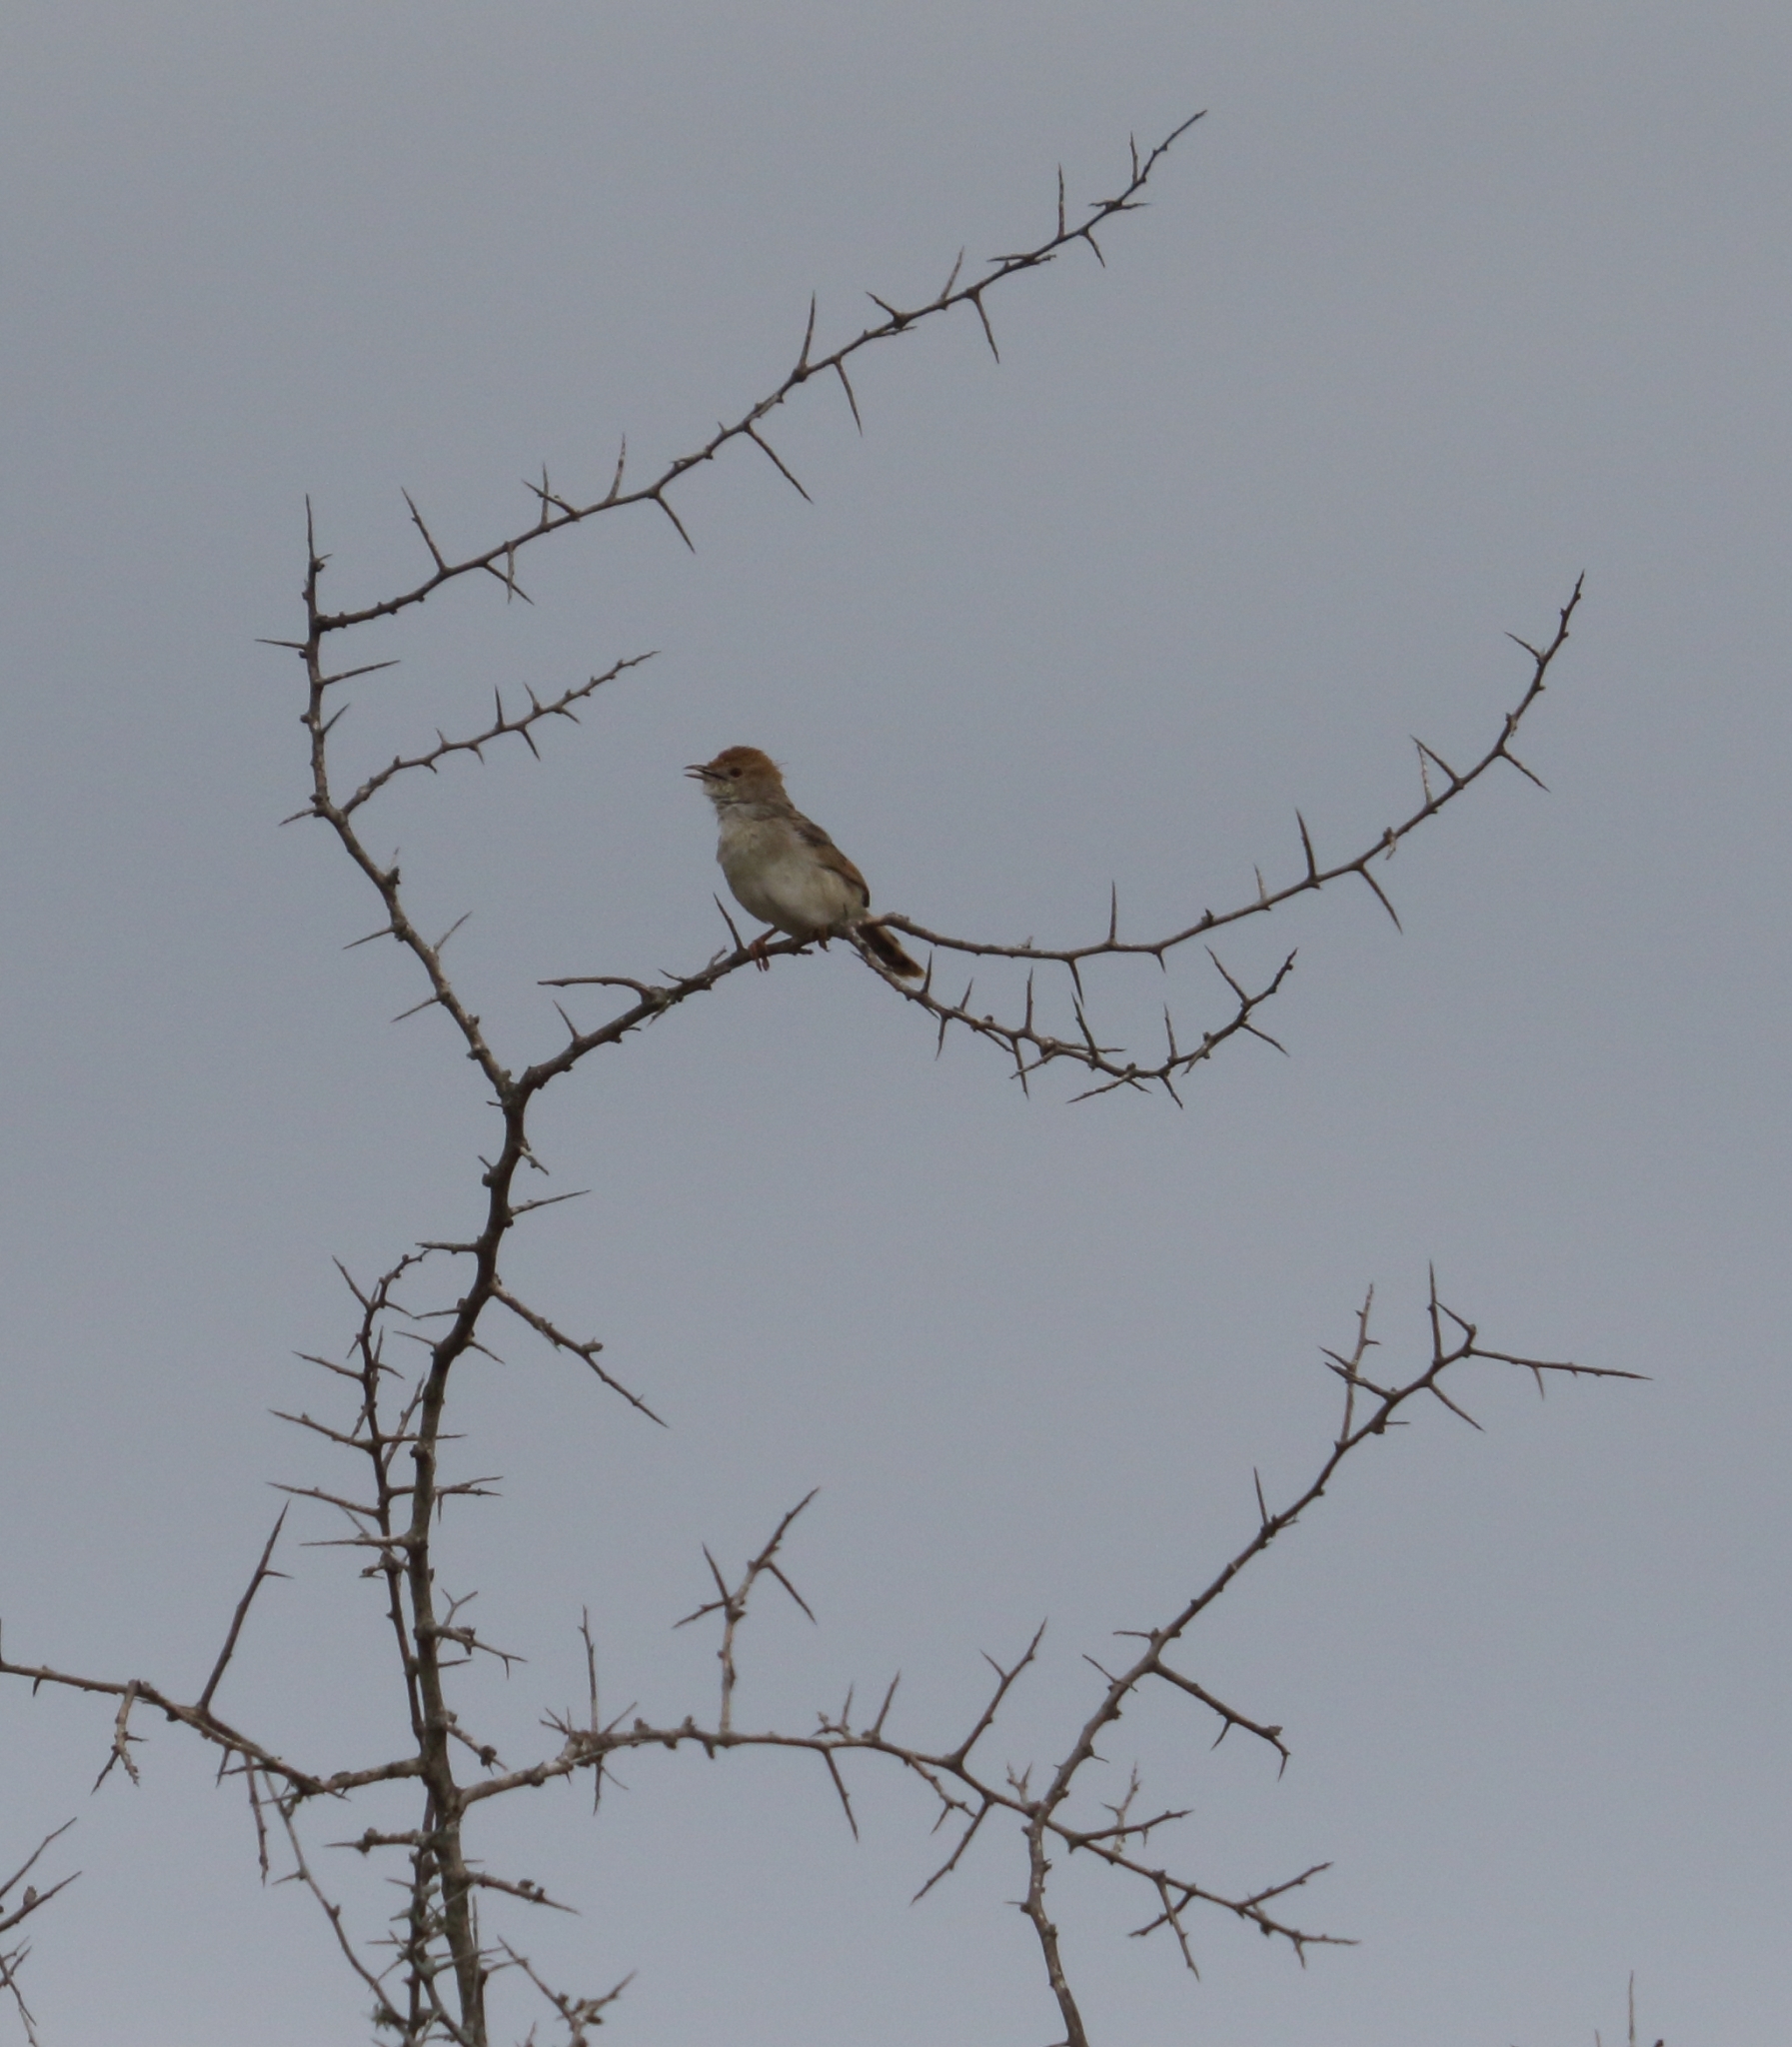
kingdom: Animalia
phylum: Chordata
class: Aves
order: Passeriformes
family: Cisticolidae
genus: Cisticola
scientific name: Cisticola chiniana
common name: Rattling cisticola
